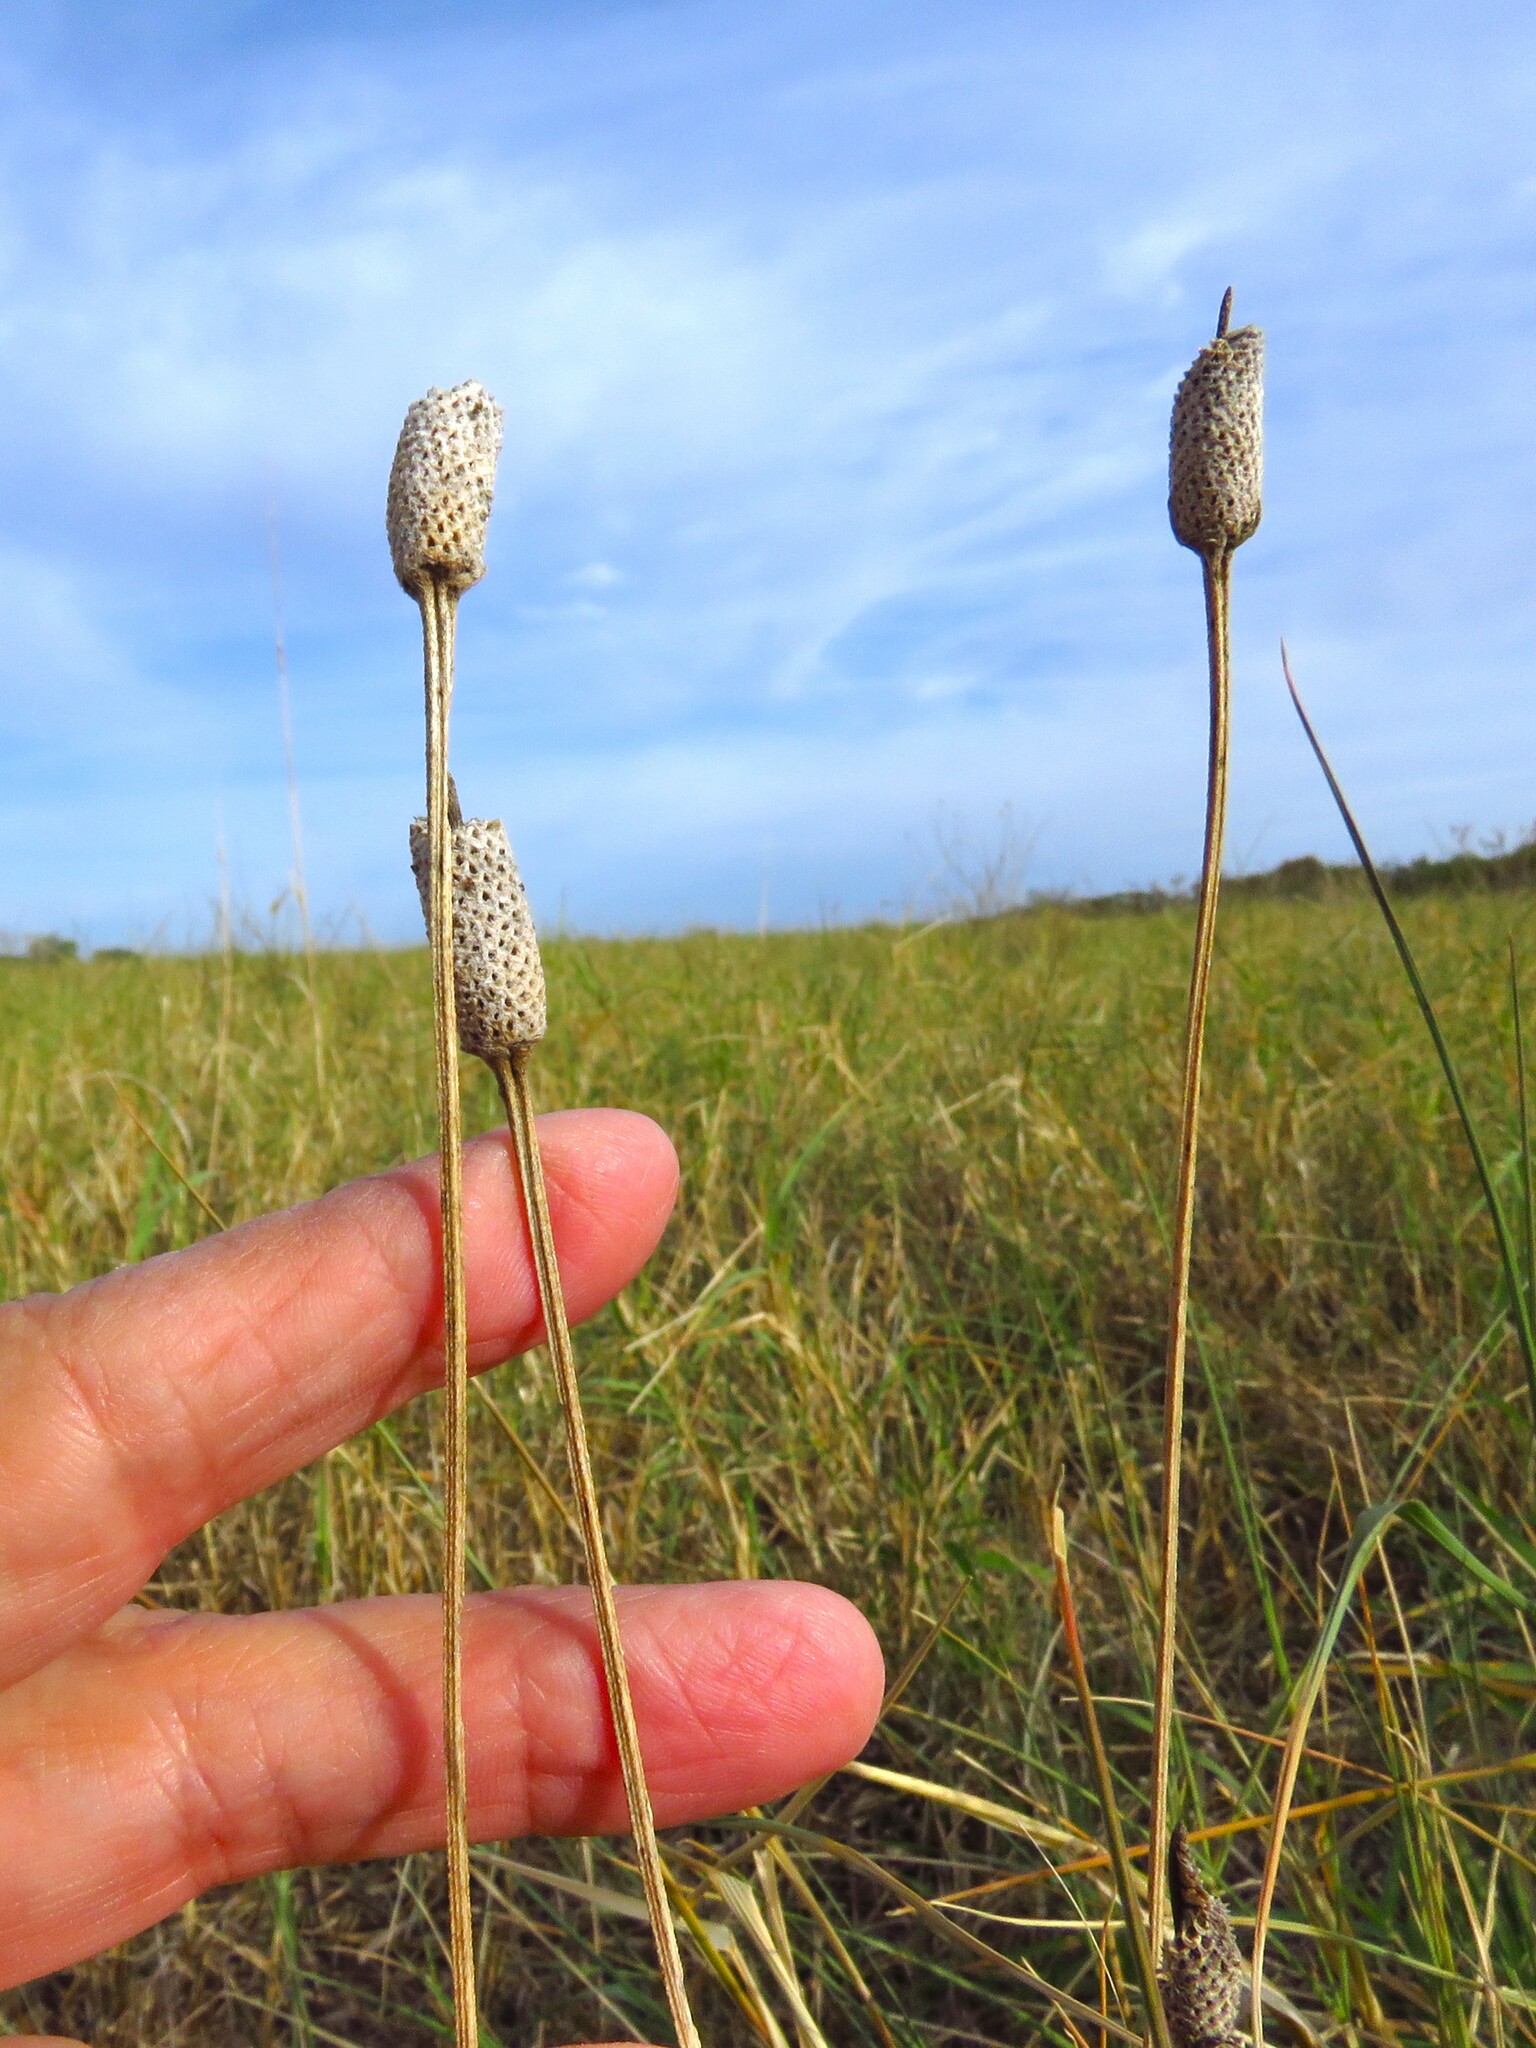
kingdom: Plantae
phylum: Tracheophyta
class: Magnoliopsida
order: Asterales
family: Asteraceae
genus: Ratibida
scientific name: Ratibida columnifera
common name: Prairie coneflower
